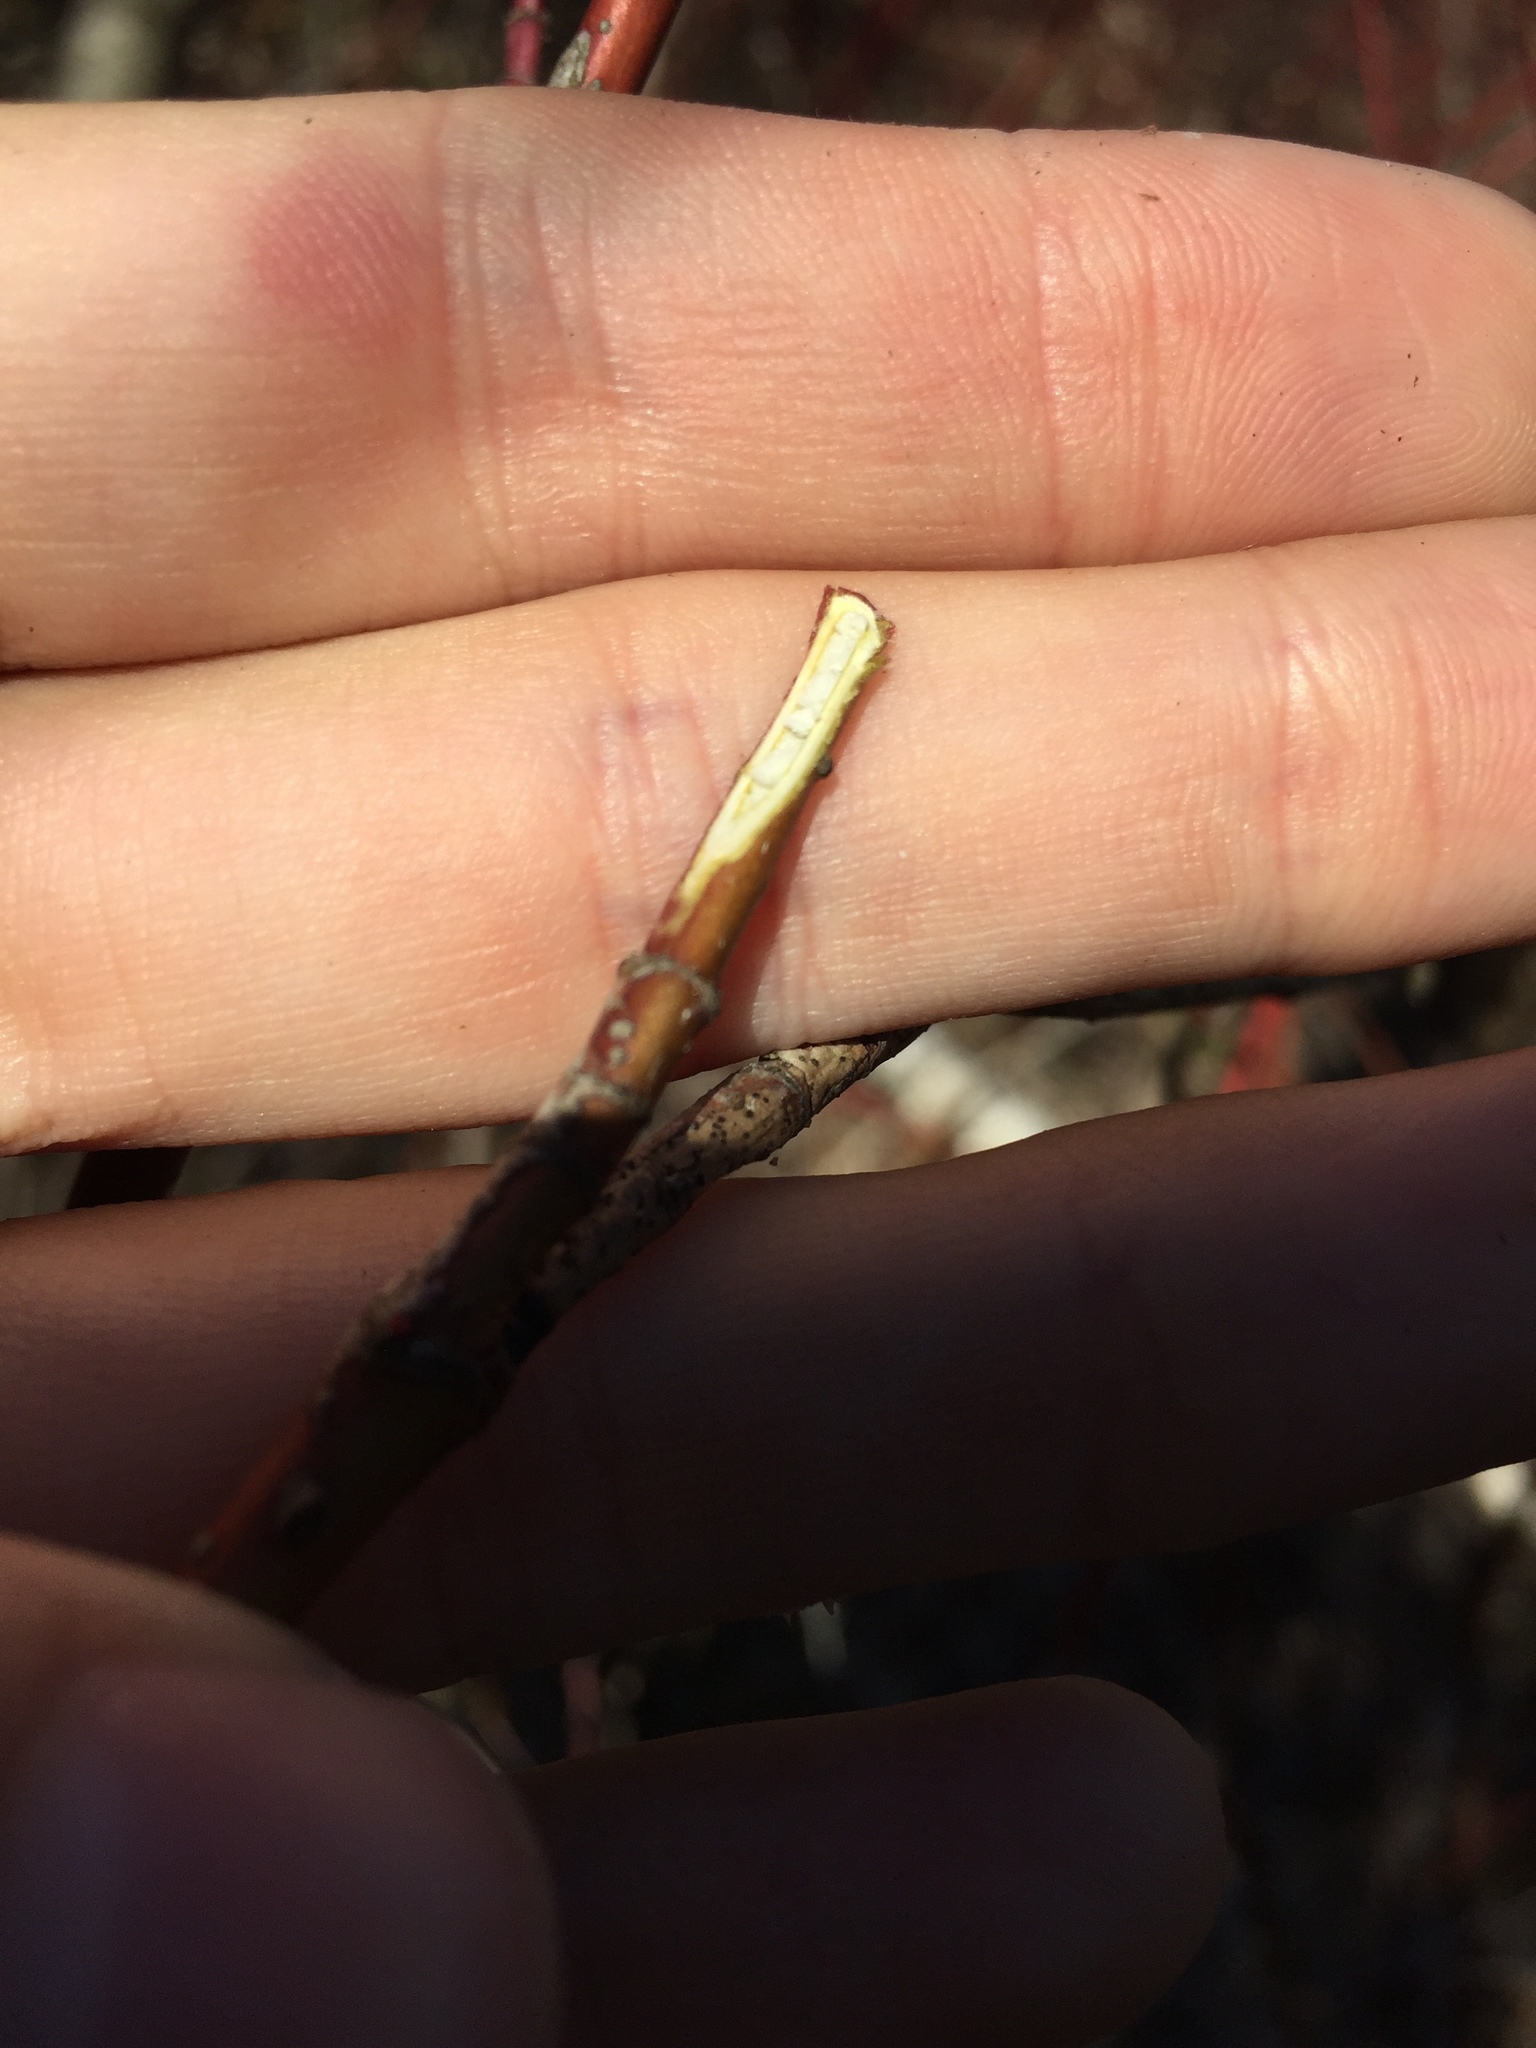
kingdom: Plantae
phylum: Tracheophyta
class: Magnoliopsida
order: Cornales
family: Cornaceae
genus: Cornus
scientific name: Cornus sericea
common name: Red-osier dogwood
